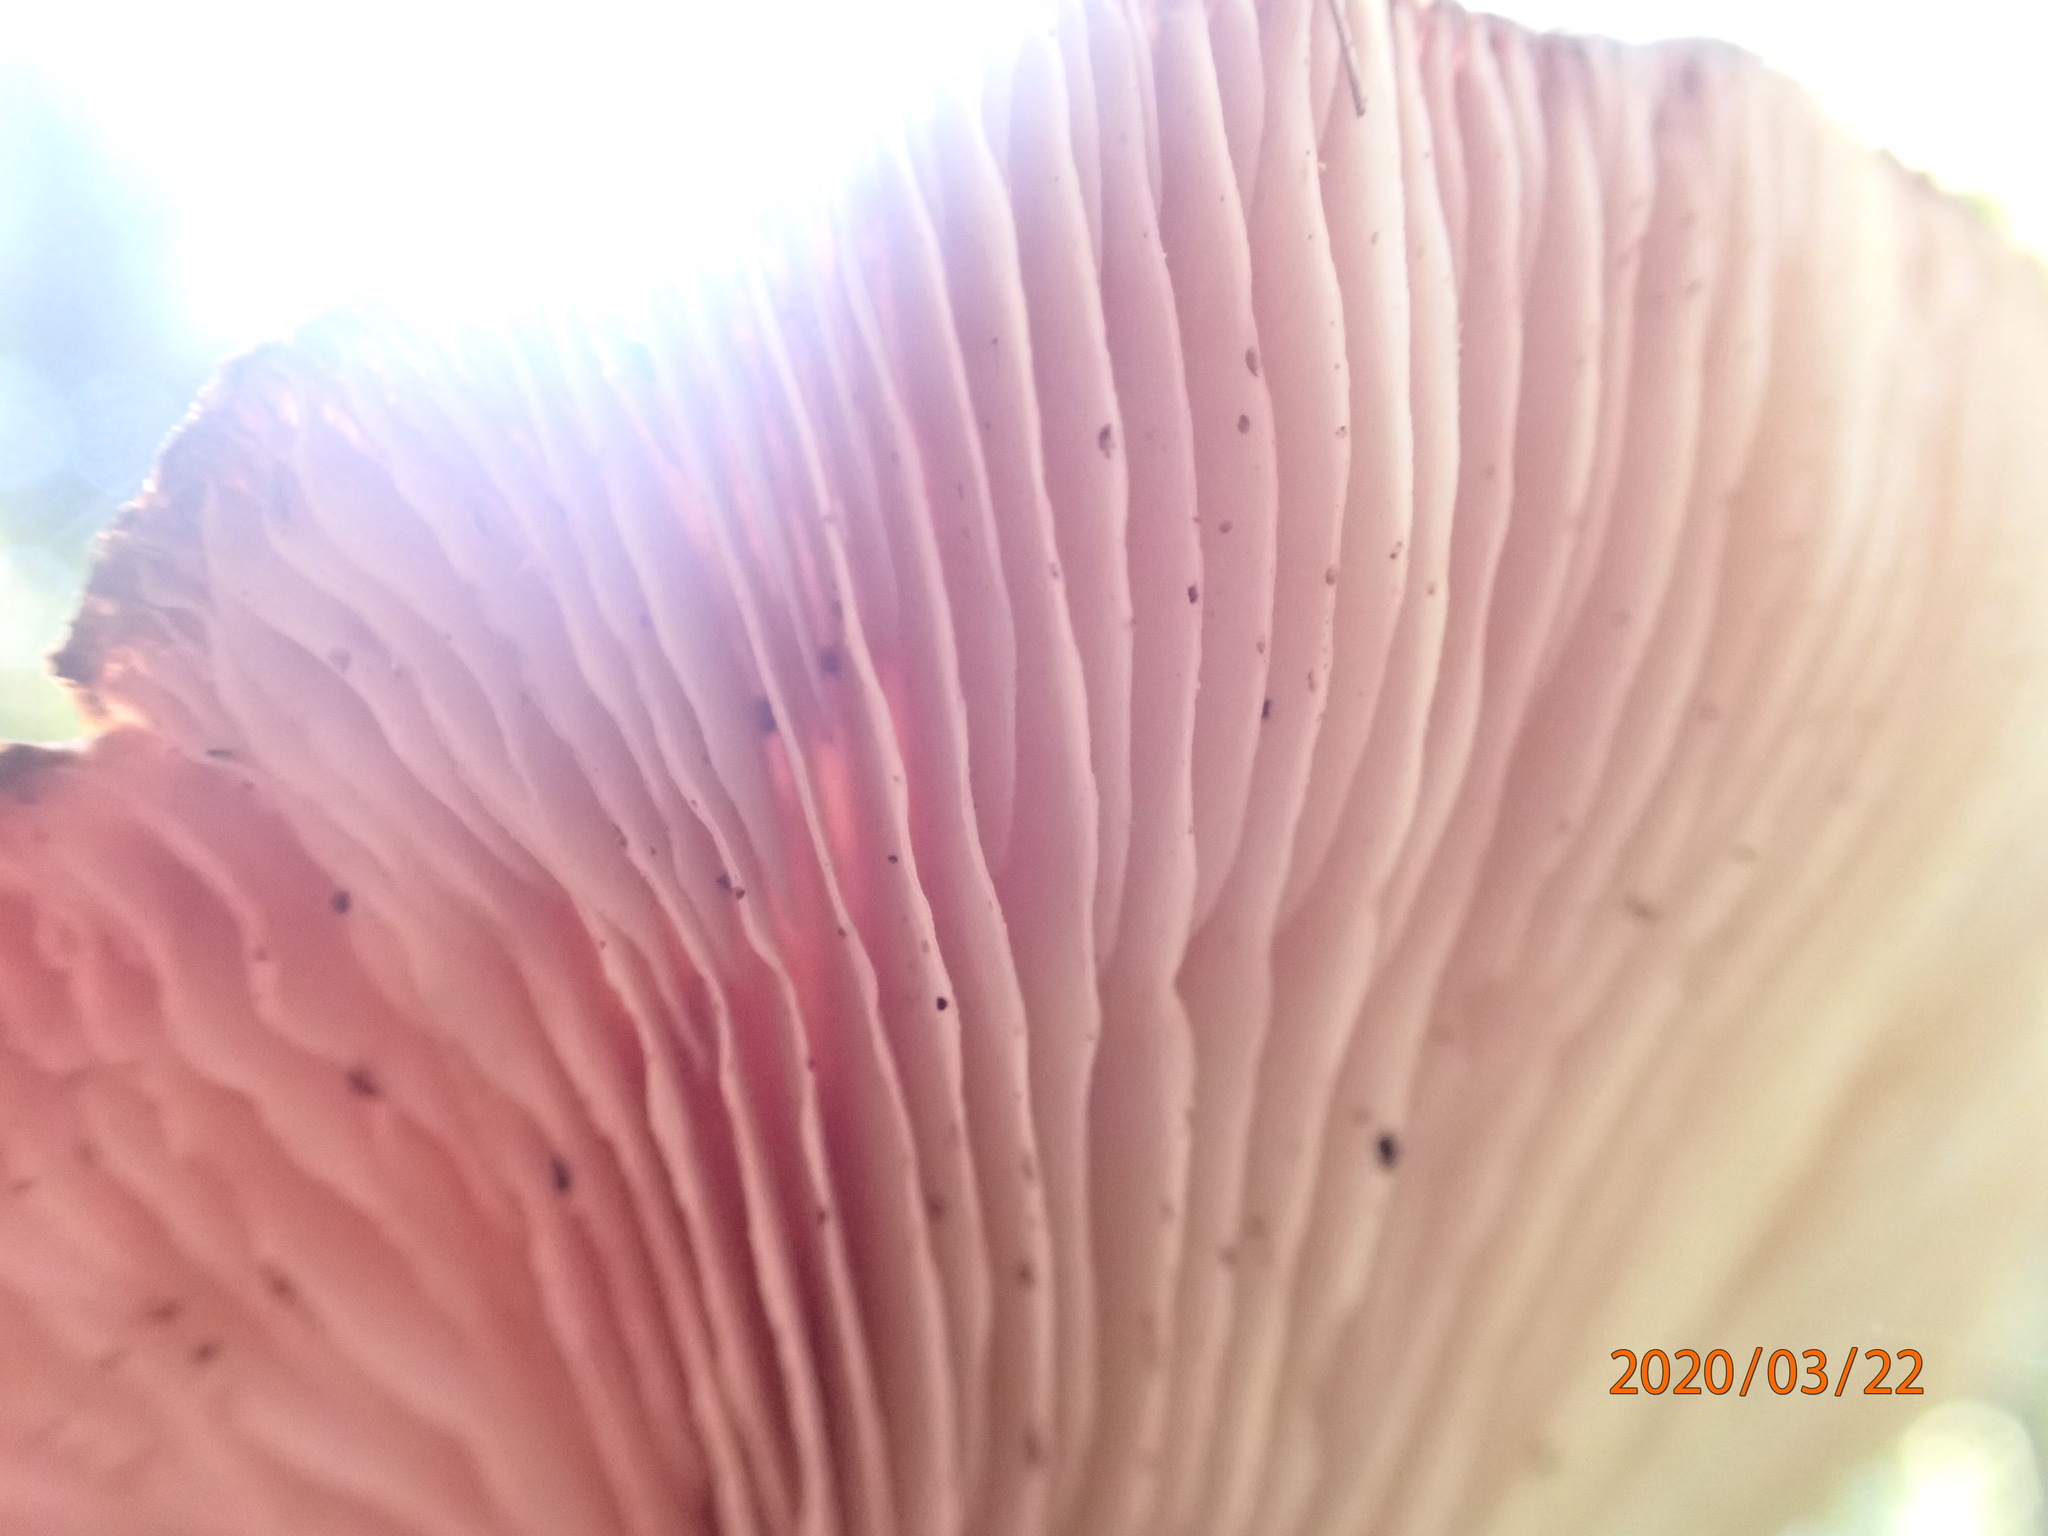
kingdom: Fungi
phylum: Basidiomycota
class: Agaricomycetes
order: Polyporales
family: Panaceae
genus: Panus
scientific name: Panus purpuratus
